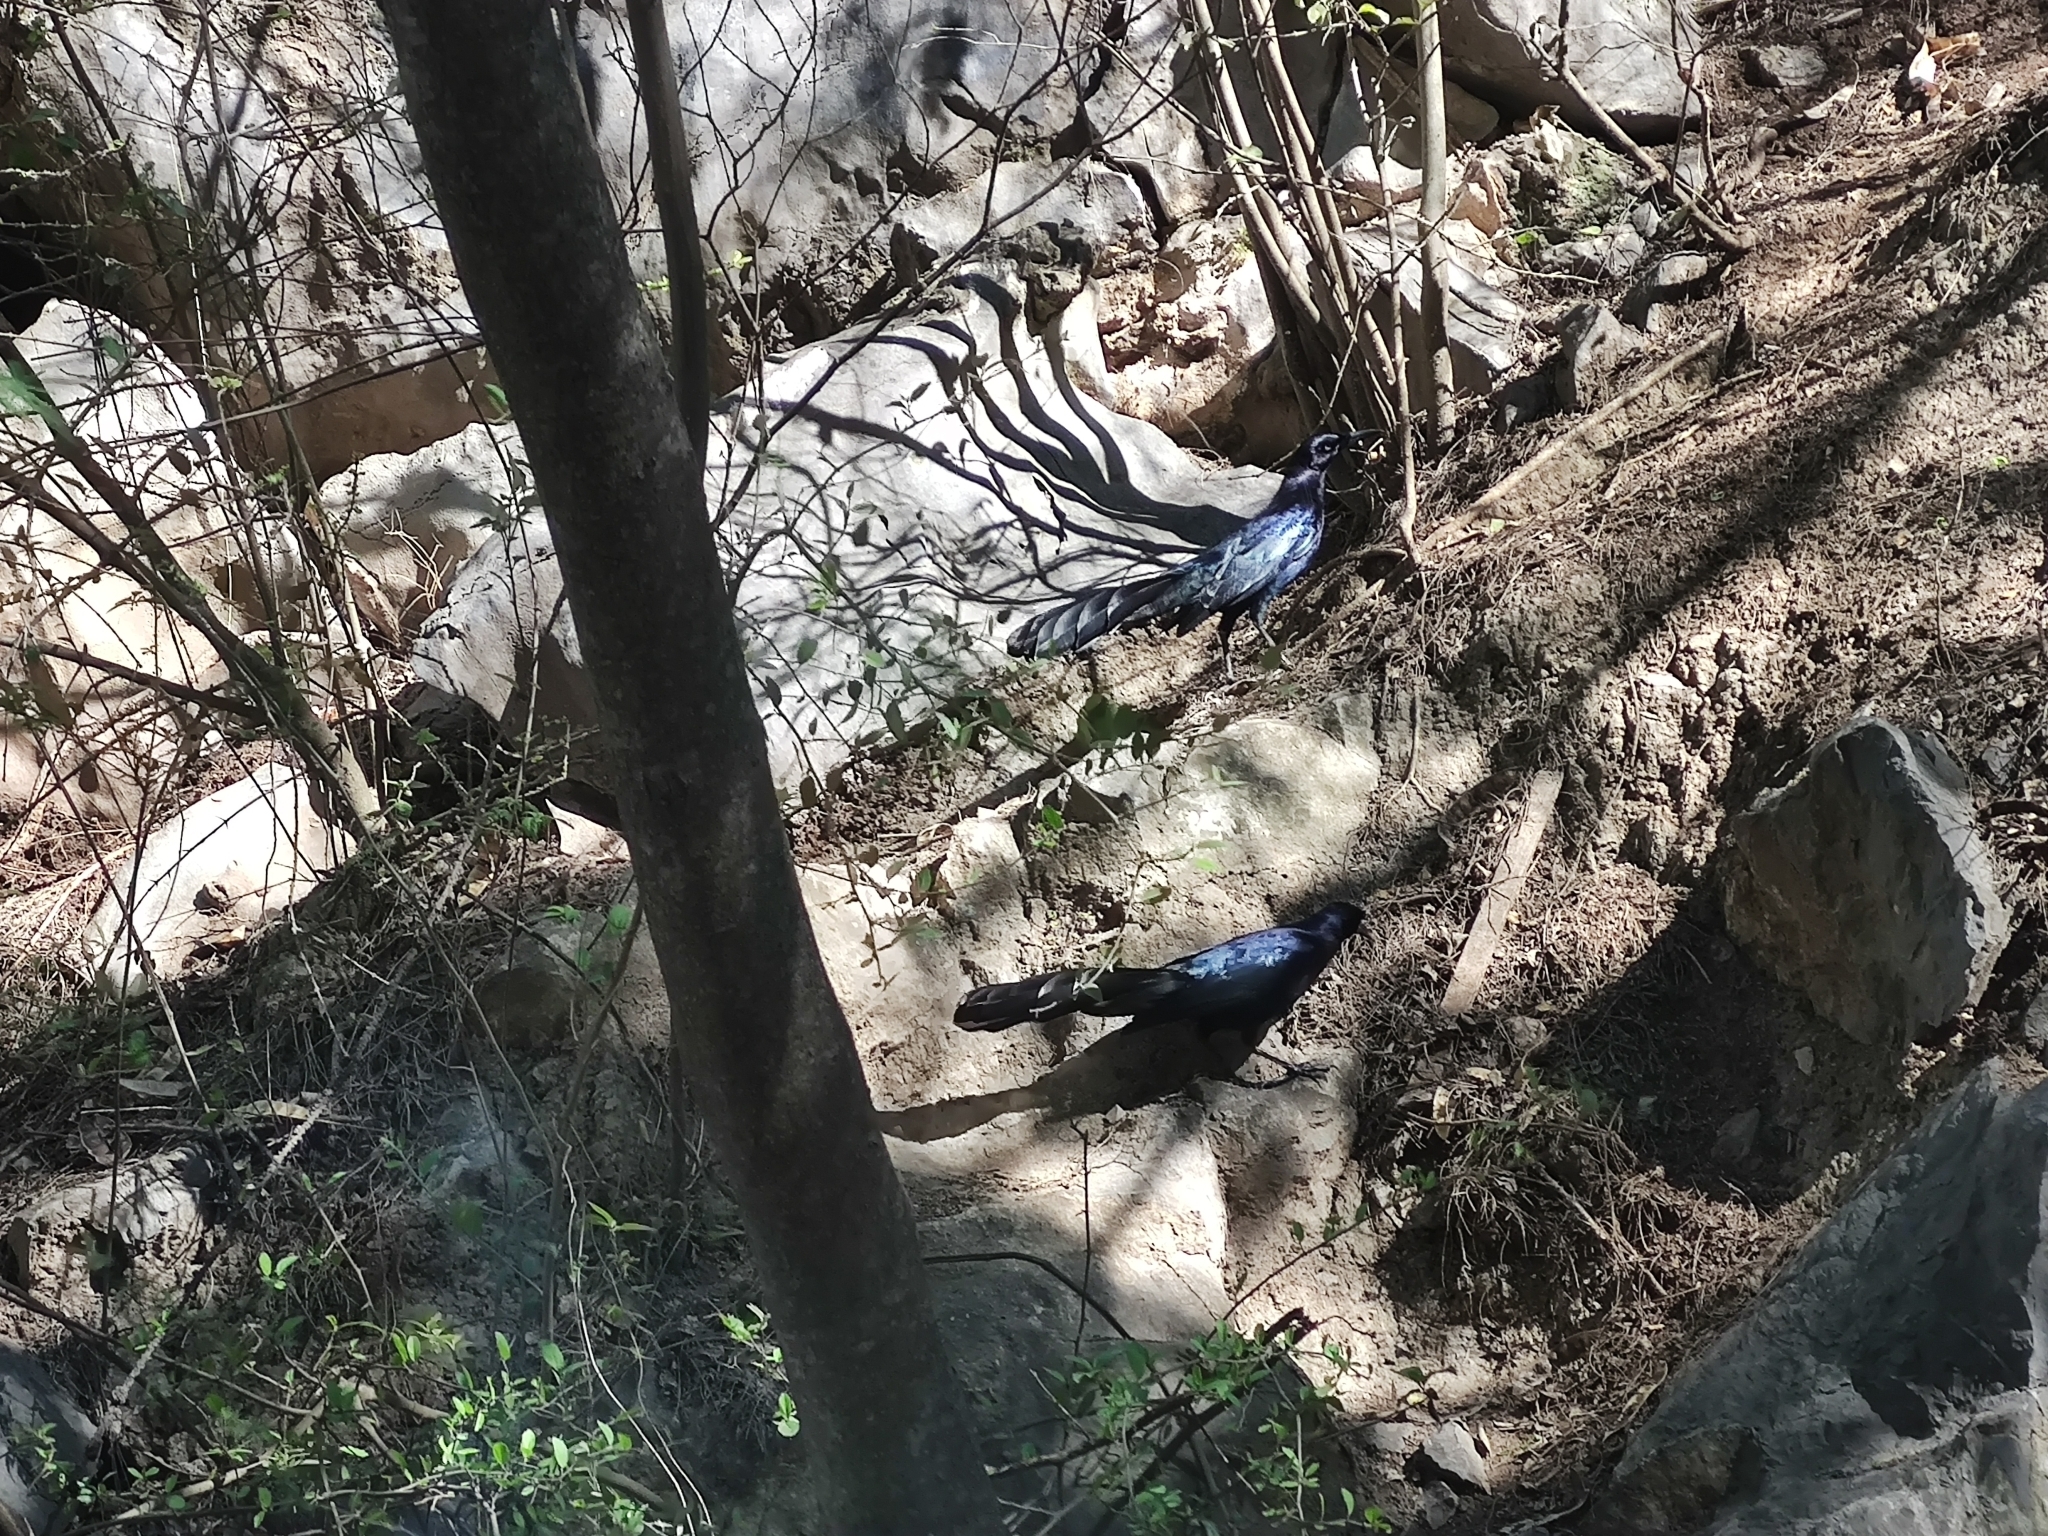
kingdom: Animalia
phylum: Chordata
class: Aves
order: Passeriformes
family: Icteridae
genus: Quiscalus
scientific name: Quiscalus mexicanus
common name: Great-tailed grackle
